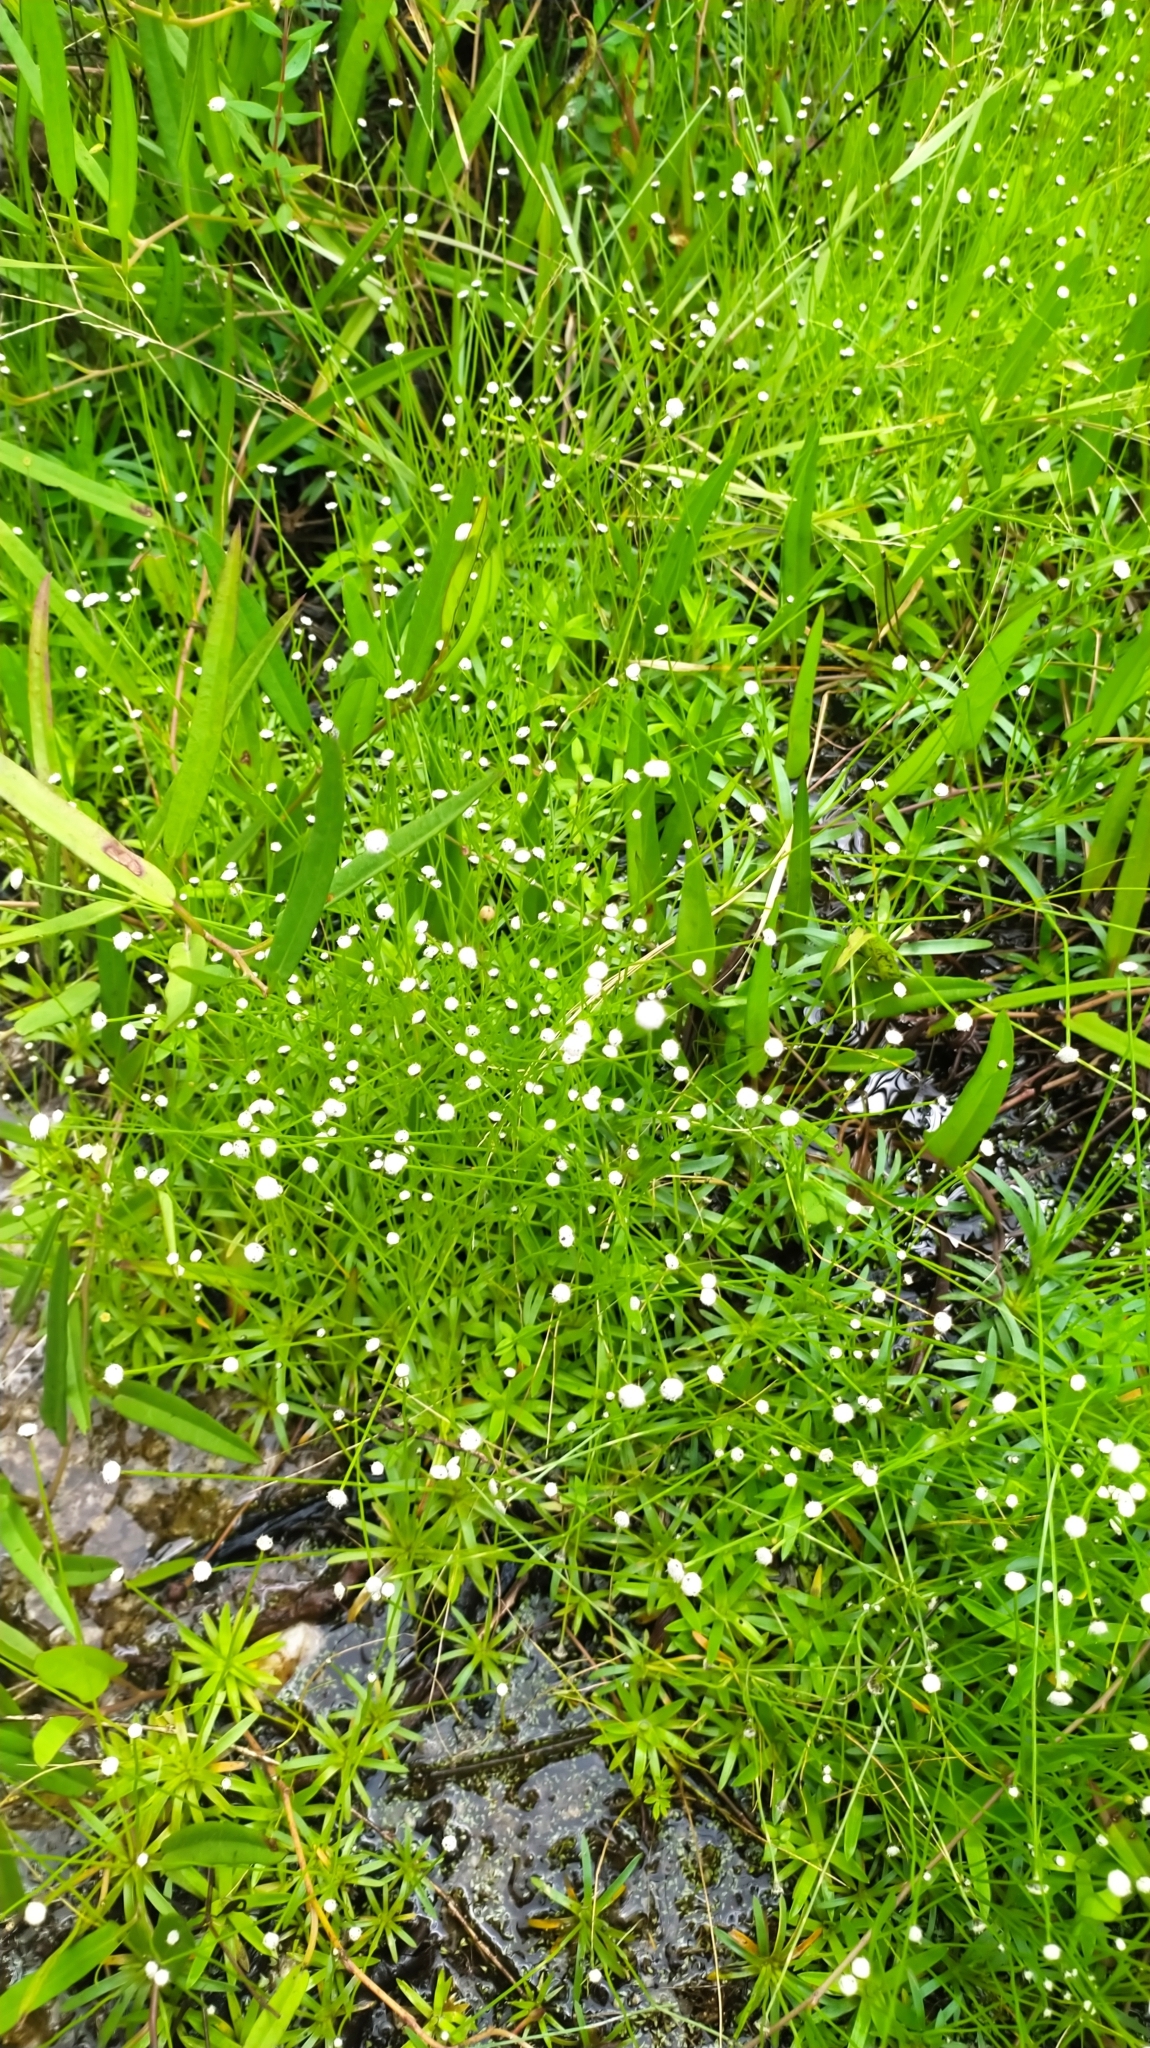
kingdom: Plantae
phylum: Tracheophyta
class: Liliopsida
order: Poales
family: Eriocaulaceae
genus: Paepalanthus
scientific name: Paepalanthus oyapockensis
